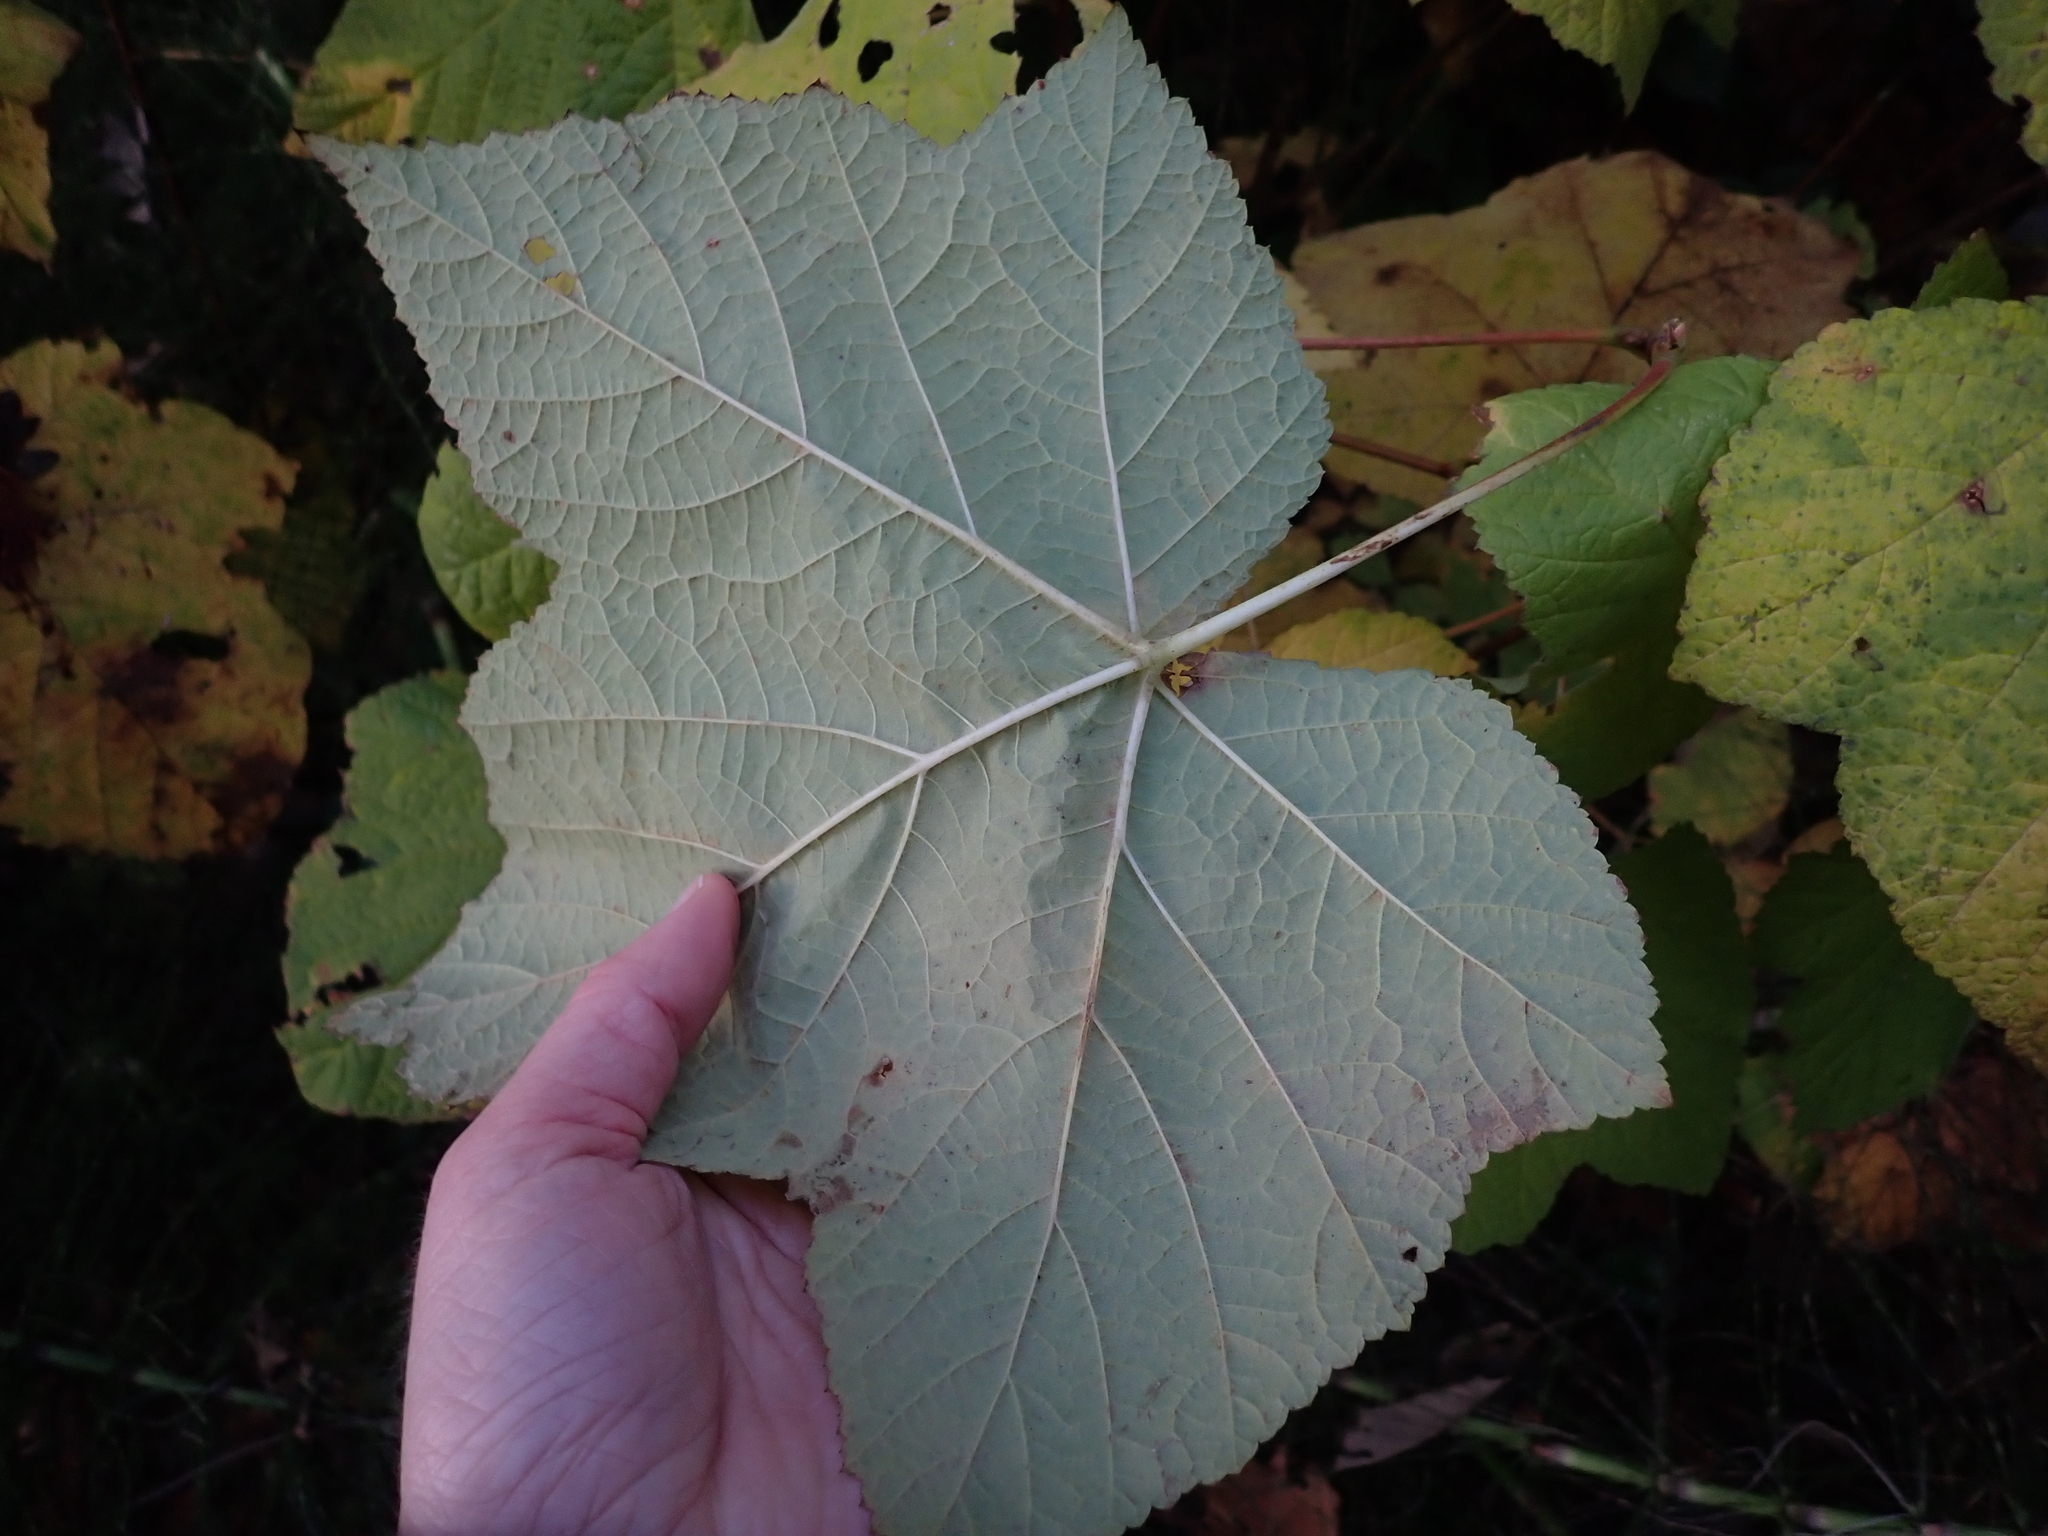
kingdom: Plantae
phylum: Tracheophyta
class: Magnoliopsida
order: Rosales
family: Rosaceae
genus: Rubus
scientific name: Rubus parviflorus
